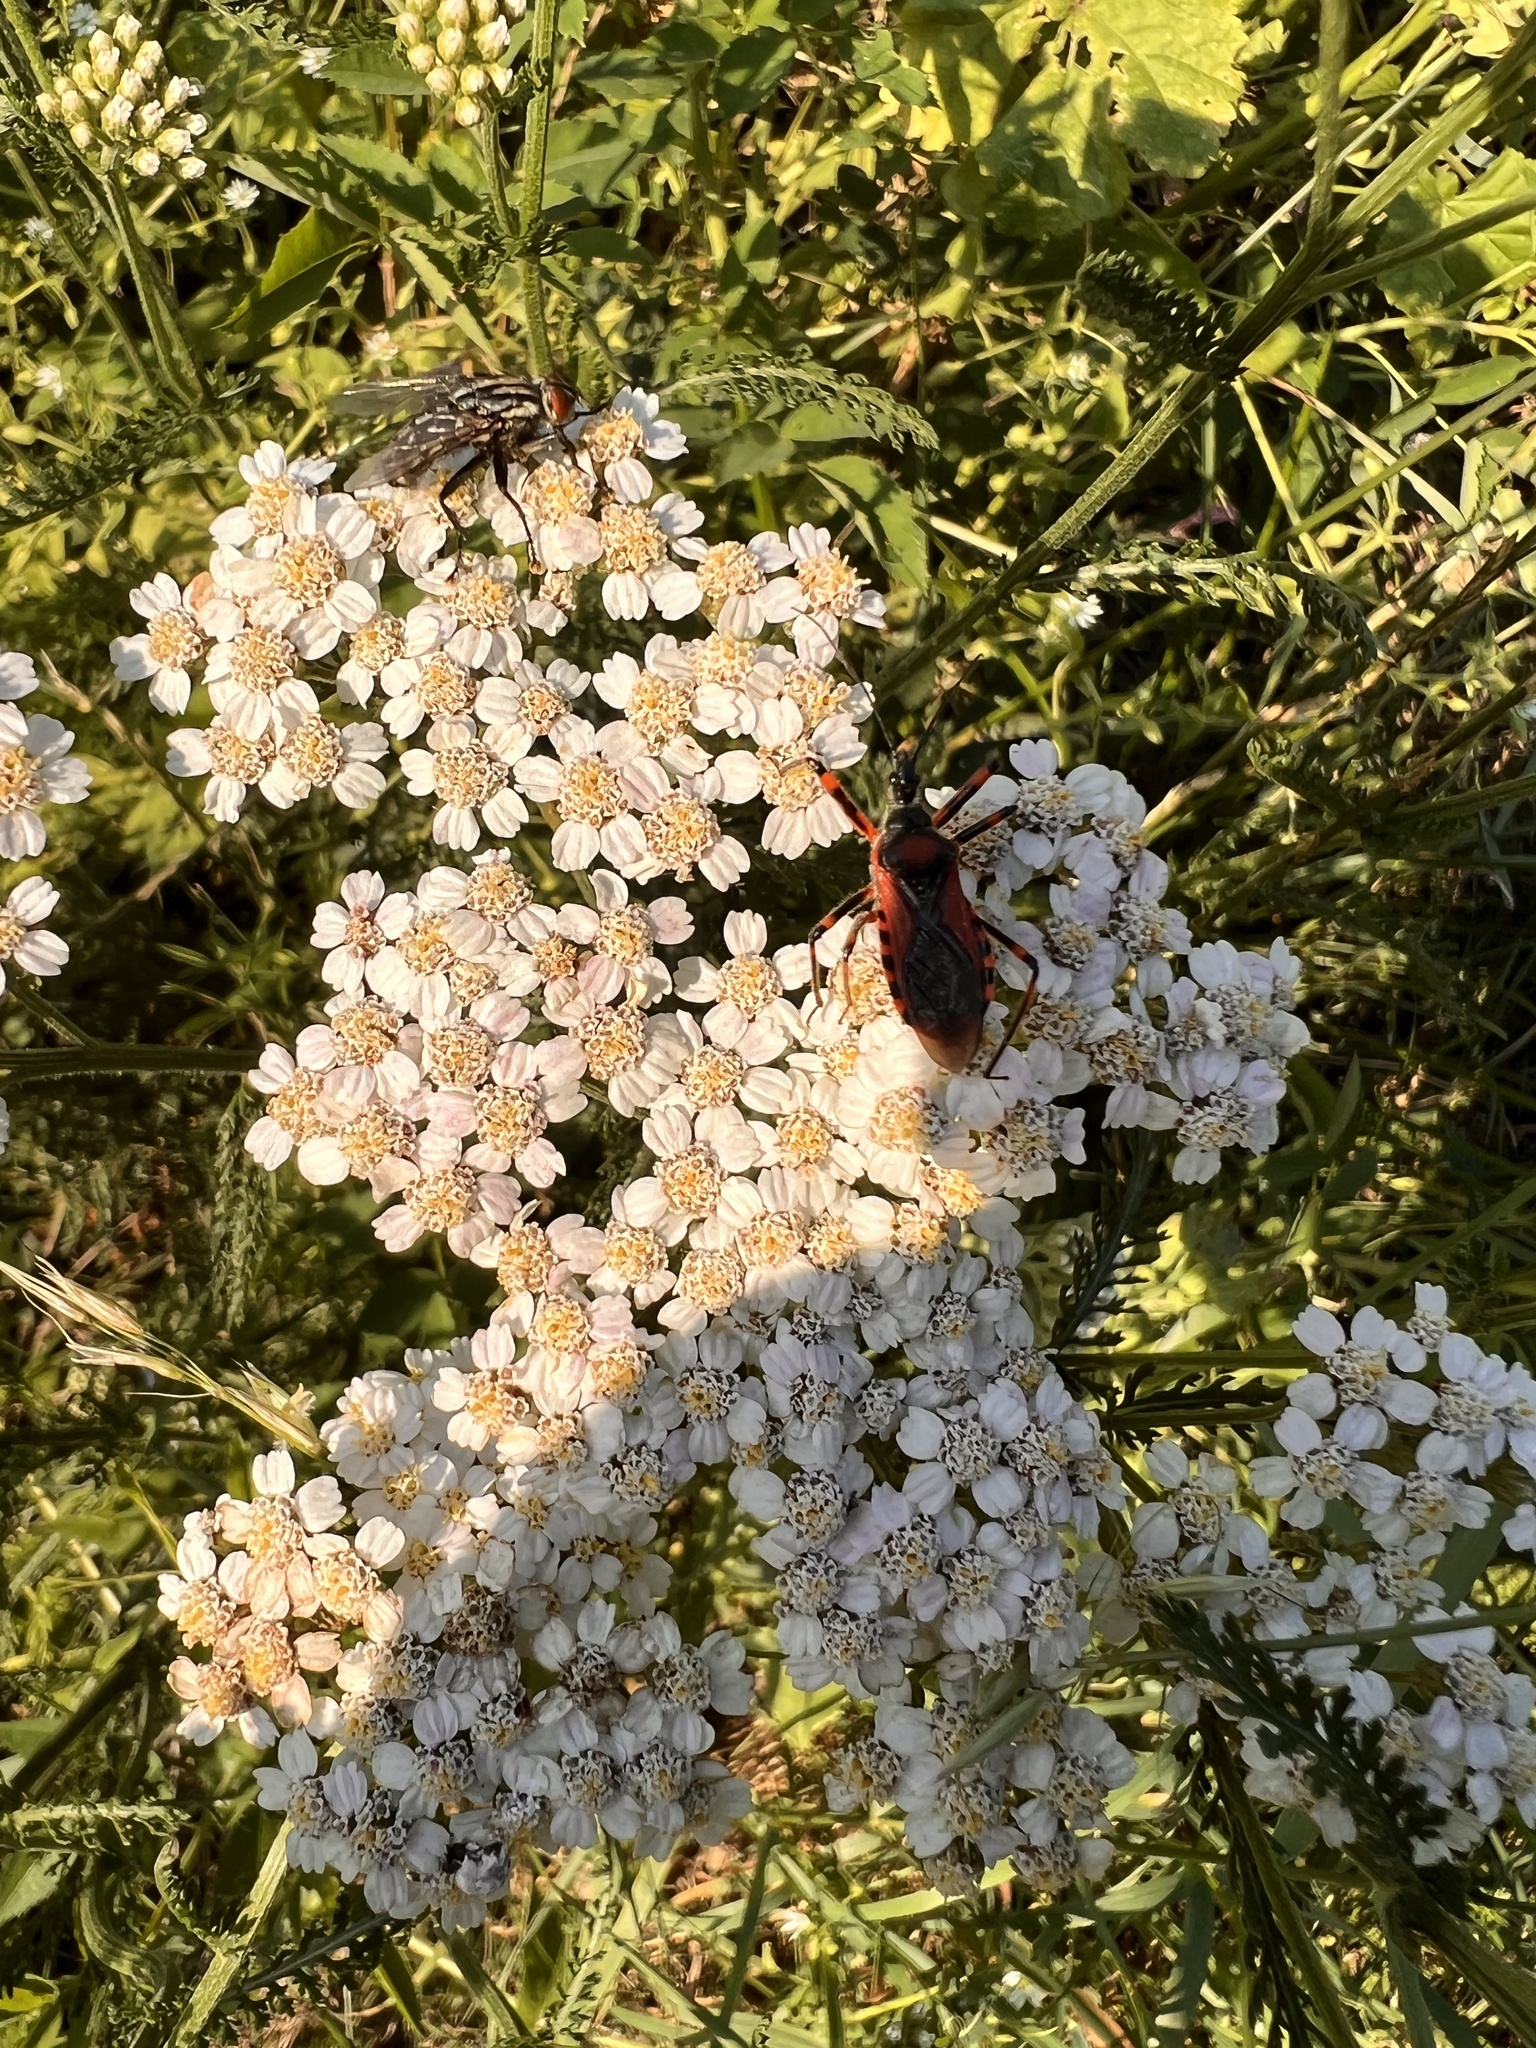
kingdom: Animalia
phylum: Arthropoda
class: Insecta
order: Hemiptera
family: Reduviidae
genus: Rhynocoris
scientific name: Rhynocoris iracundus
